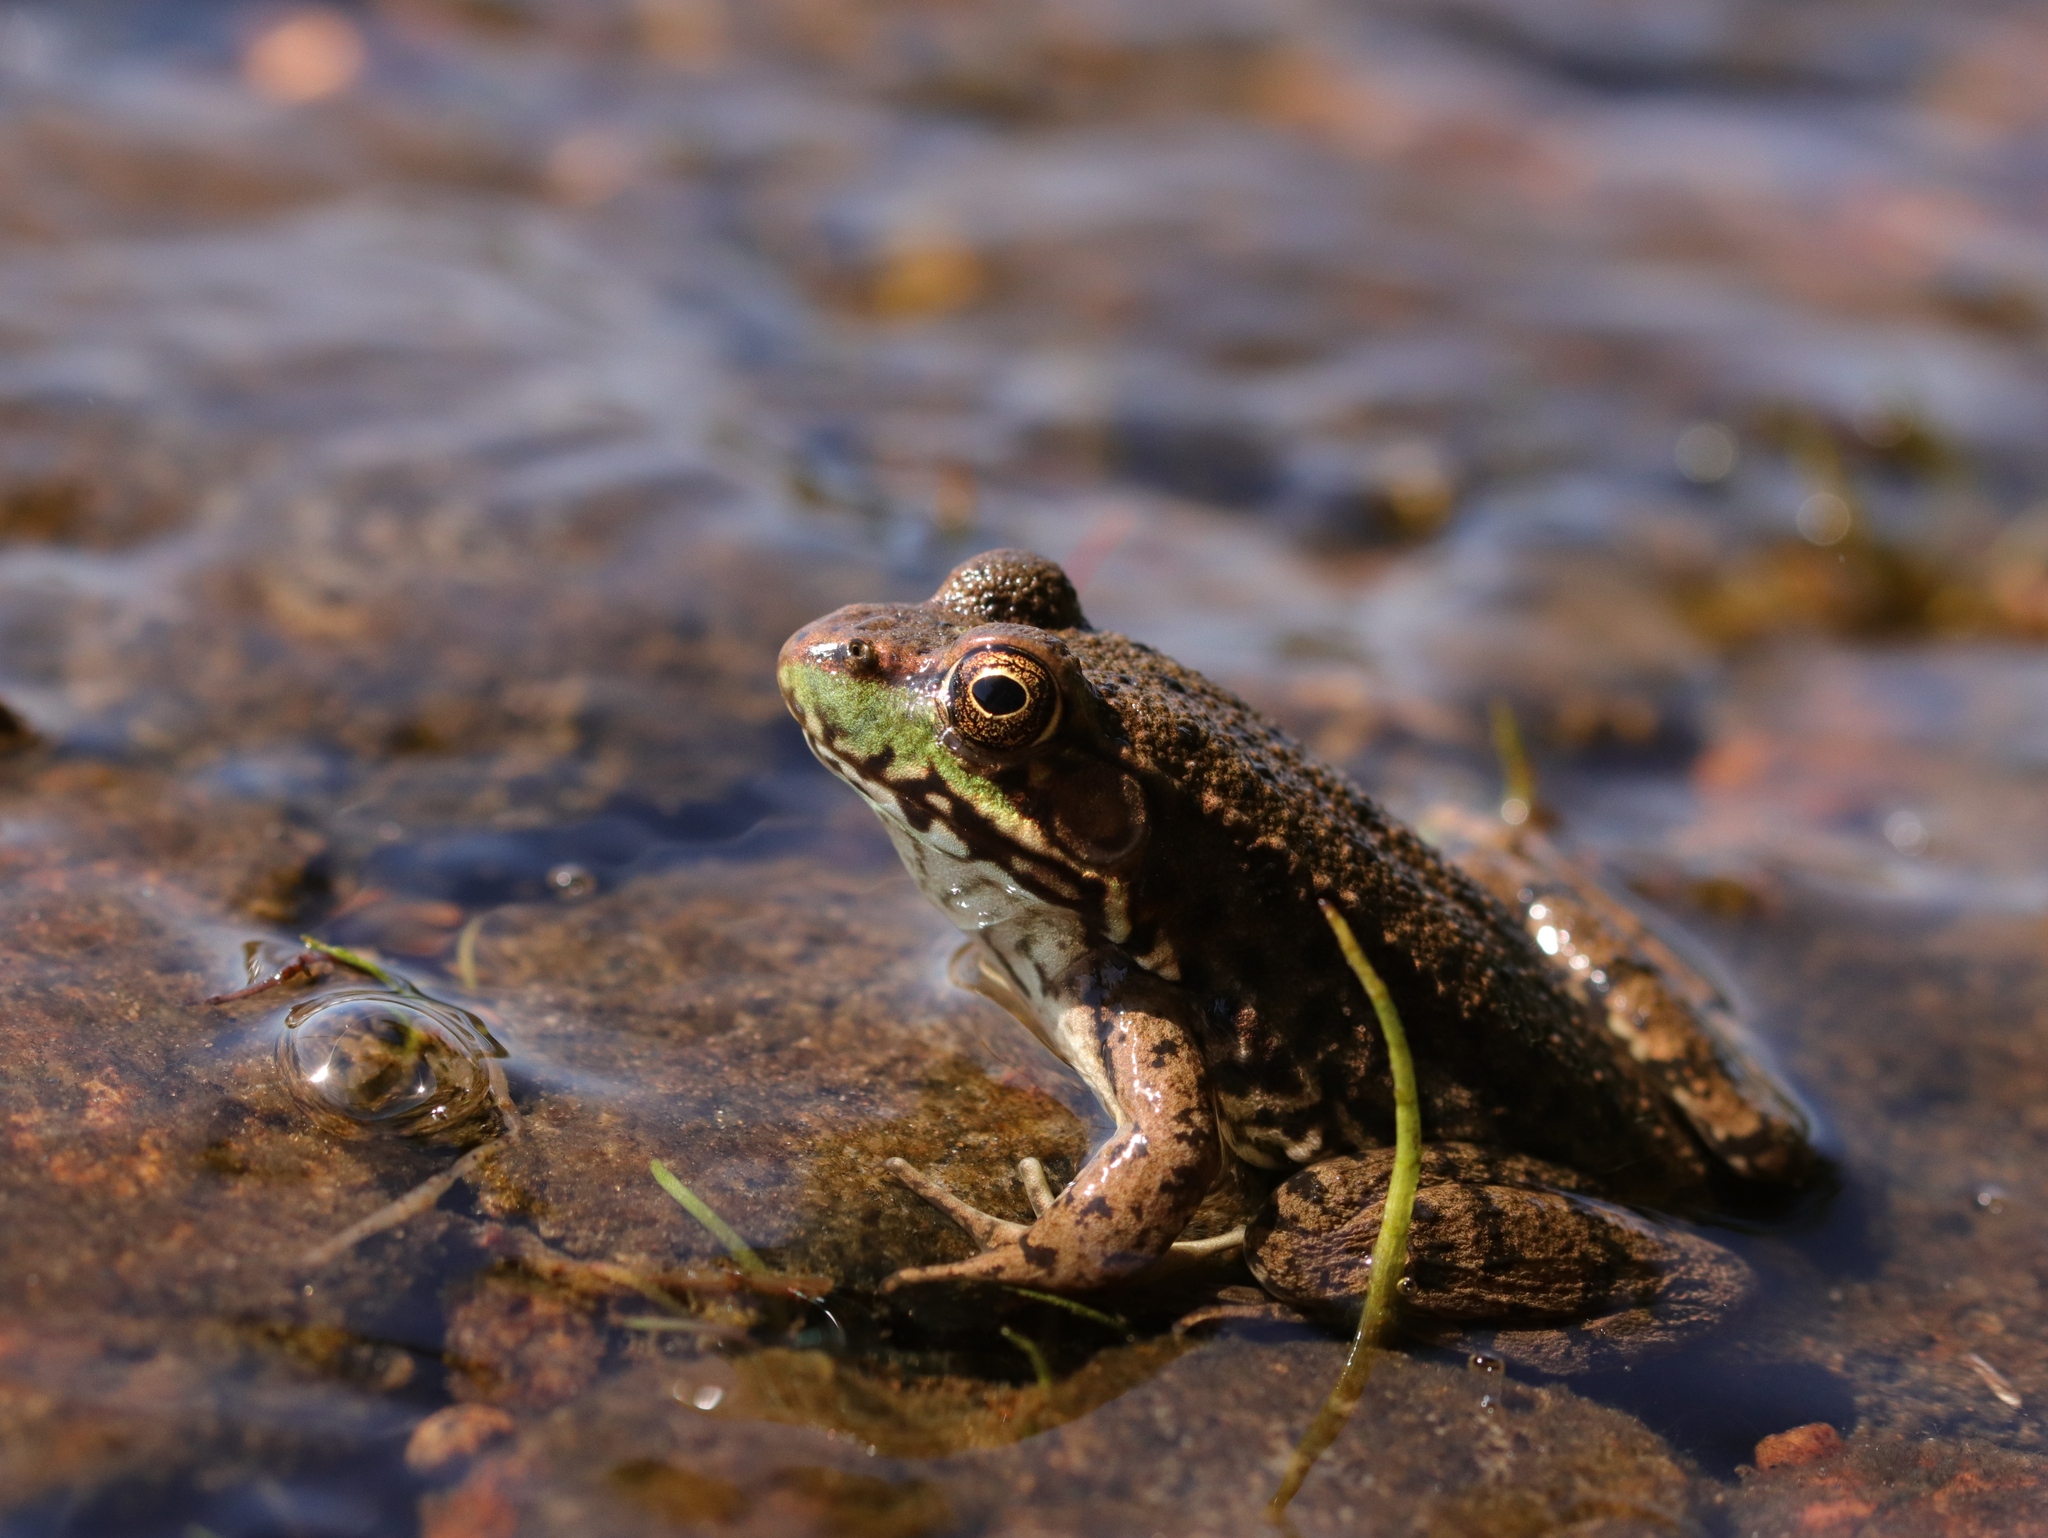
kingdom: Animalia
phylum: Chordata
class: Amphibia
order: Anura
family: Ranidae
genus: Lithobates
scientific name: Lithobates clamitans
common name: Green frog
